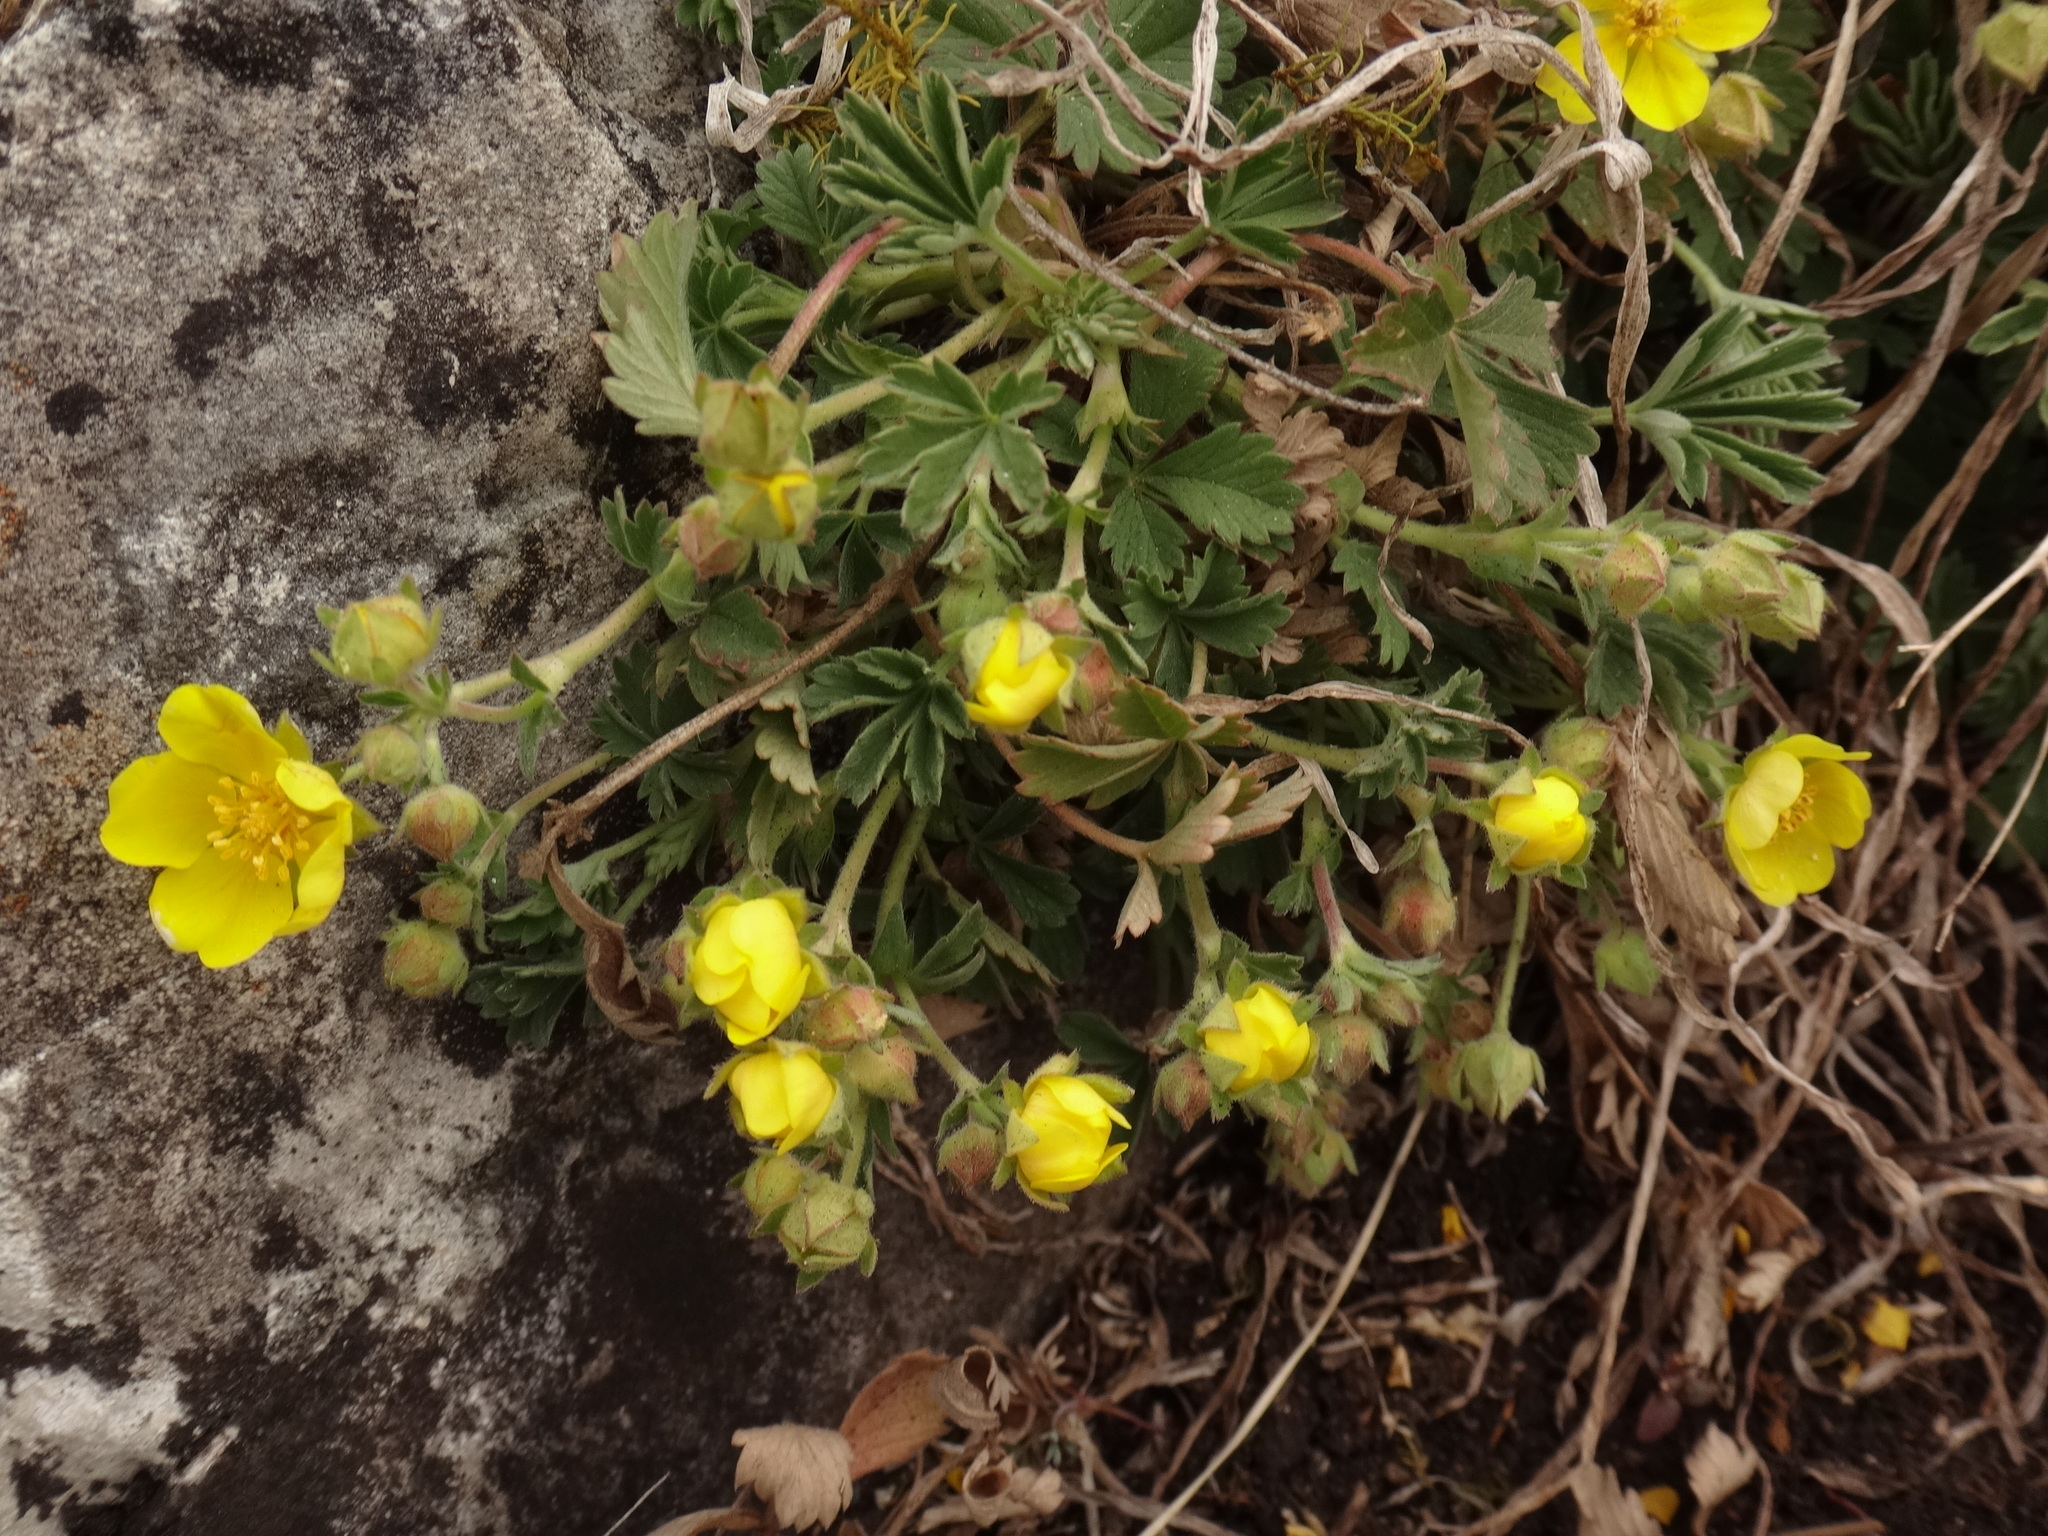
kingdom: Plantae
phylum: Tracheophyta
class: Magnoliopsida
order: Rosales
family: Rosaceae
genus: Potentilla
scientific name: Potentilla incana
